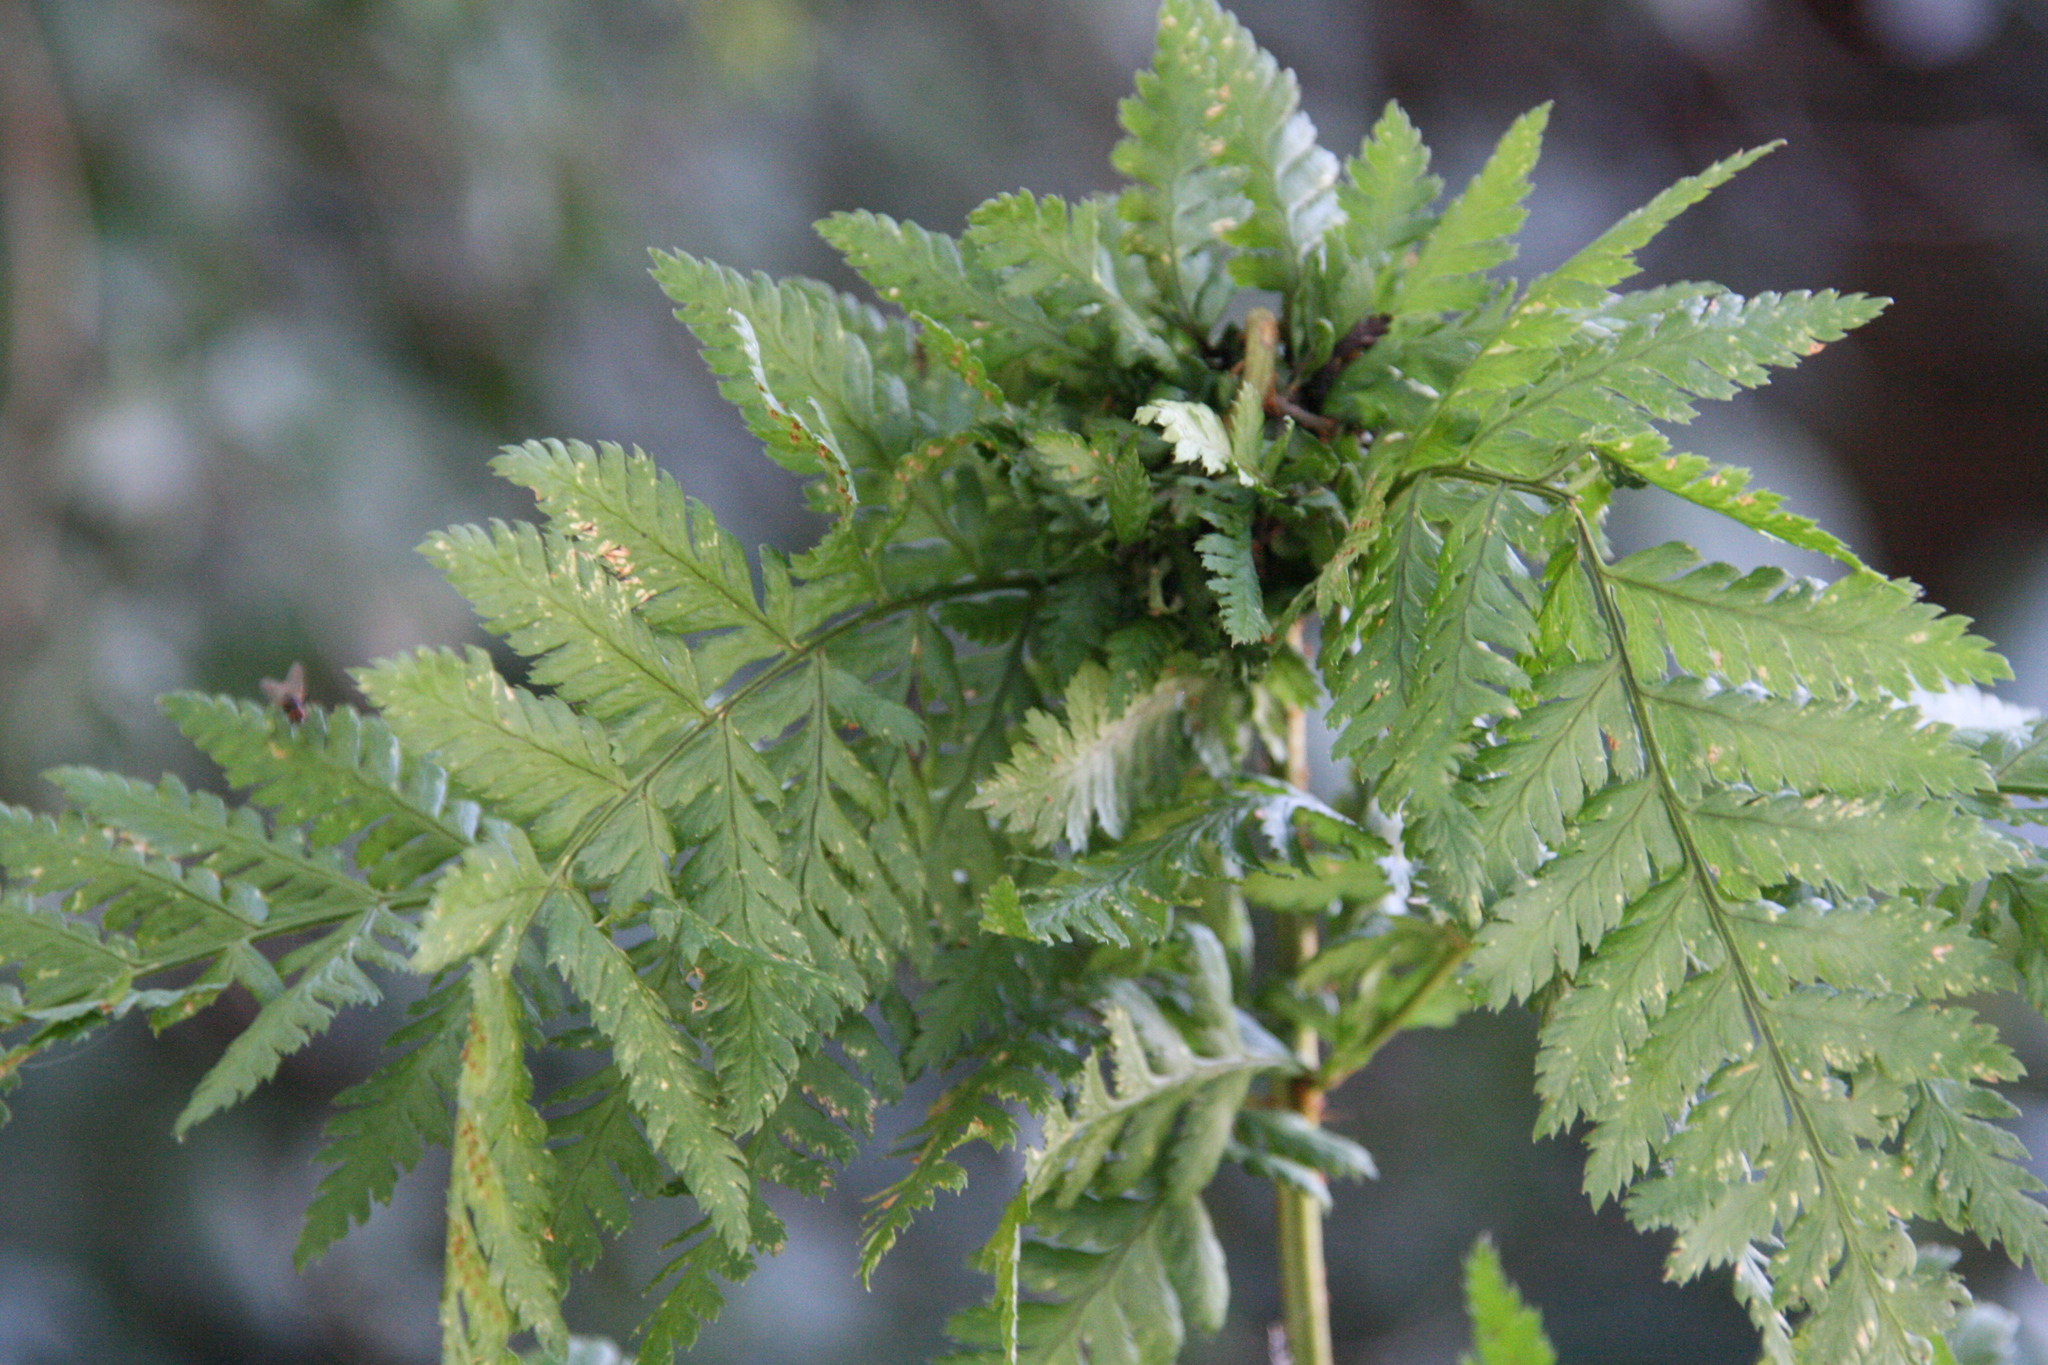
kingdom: Animalia
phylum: Arthropoda
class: Insecta
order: Diptera
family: Anthomyiidae
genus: Chirosia
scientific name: Chirosia betuleti
